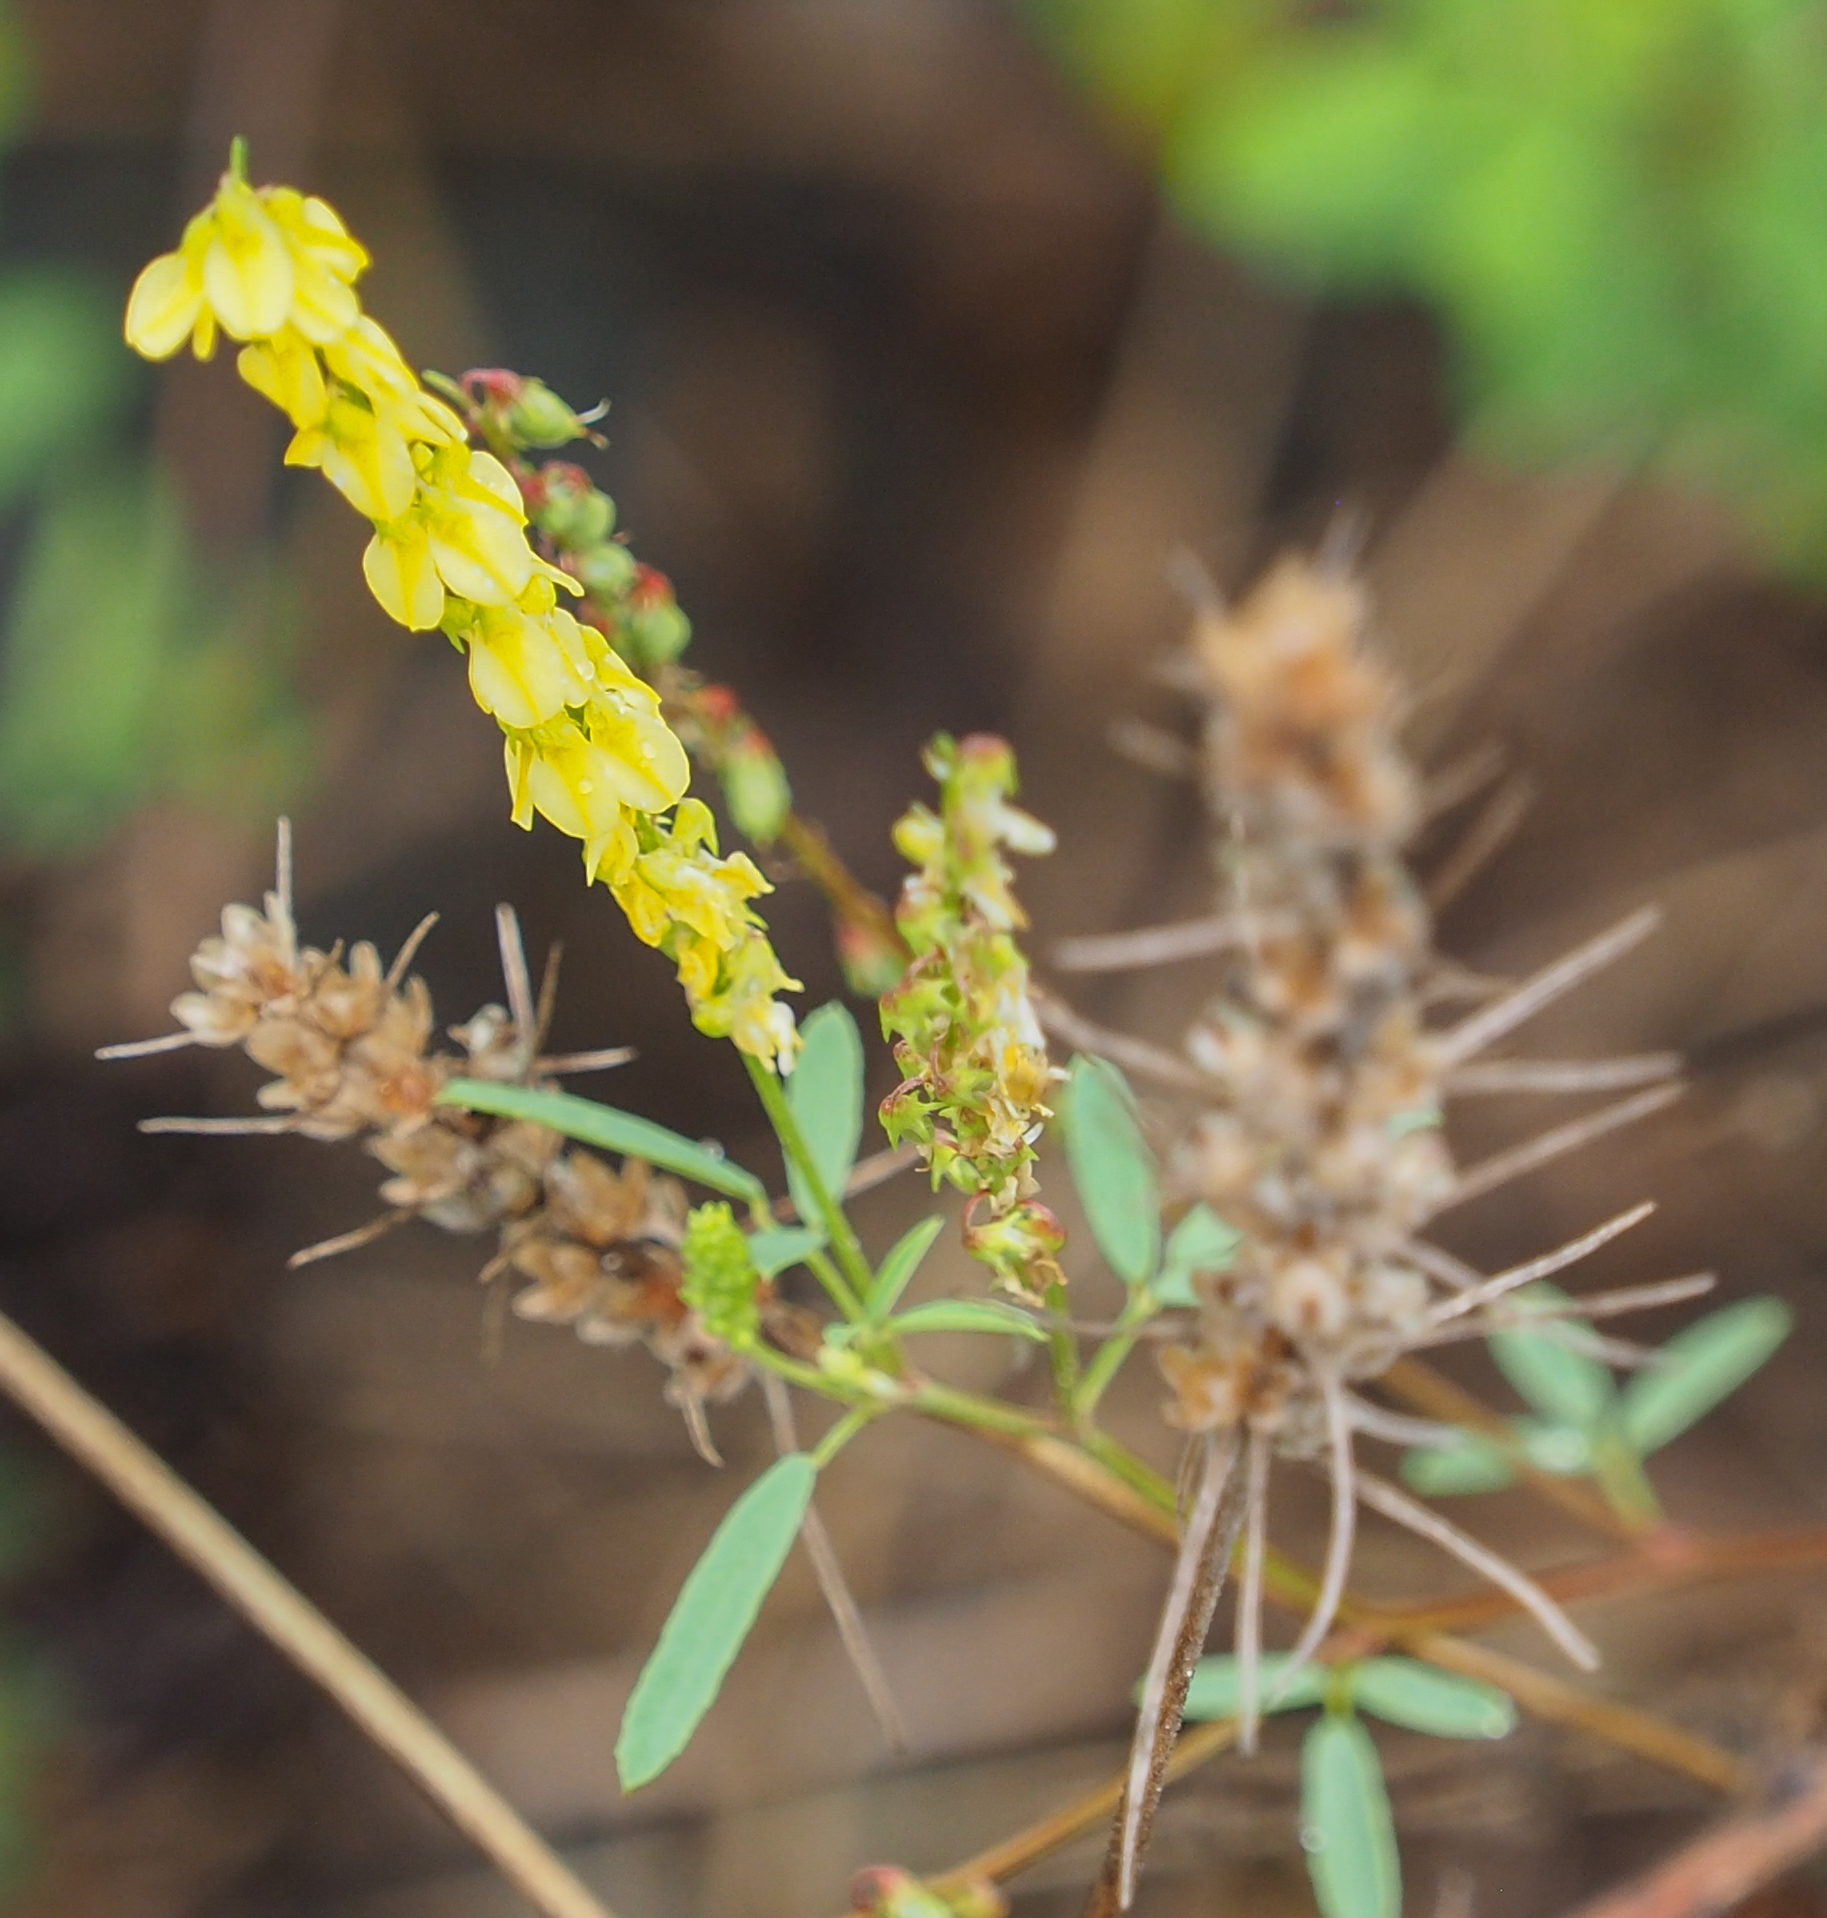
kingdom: Plantae
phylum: Tracheophyta
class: Magnoliopsida
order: Fabales
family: Fabaceae
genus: Melilotus
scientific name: Melilotus officinalis
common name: Sweetclover
